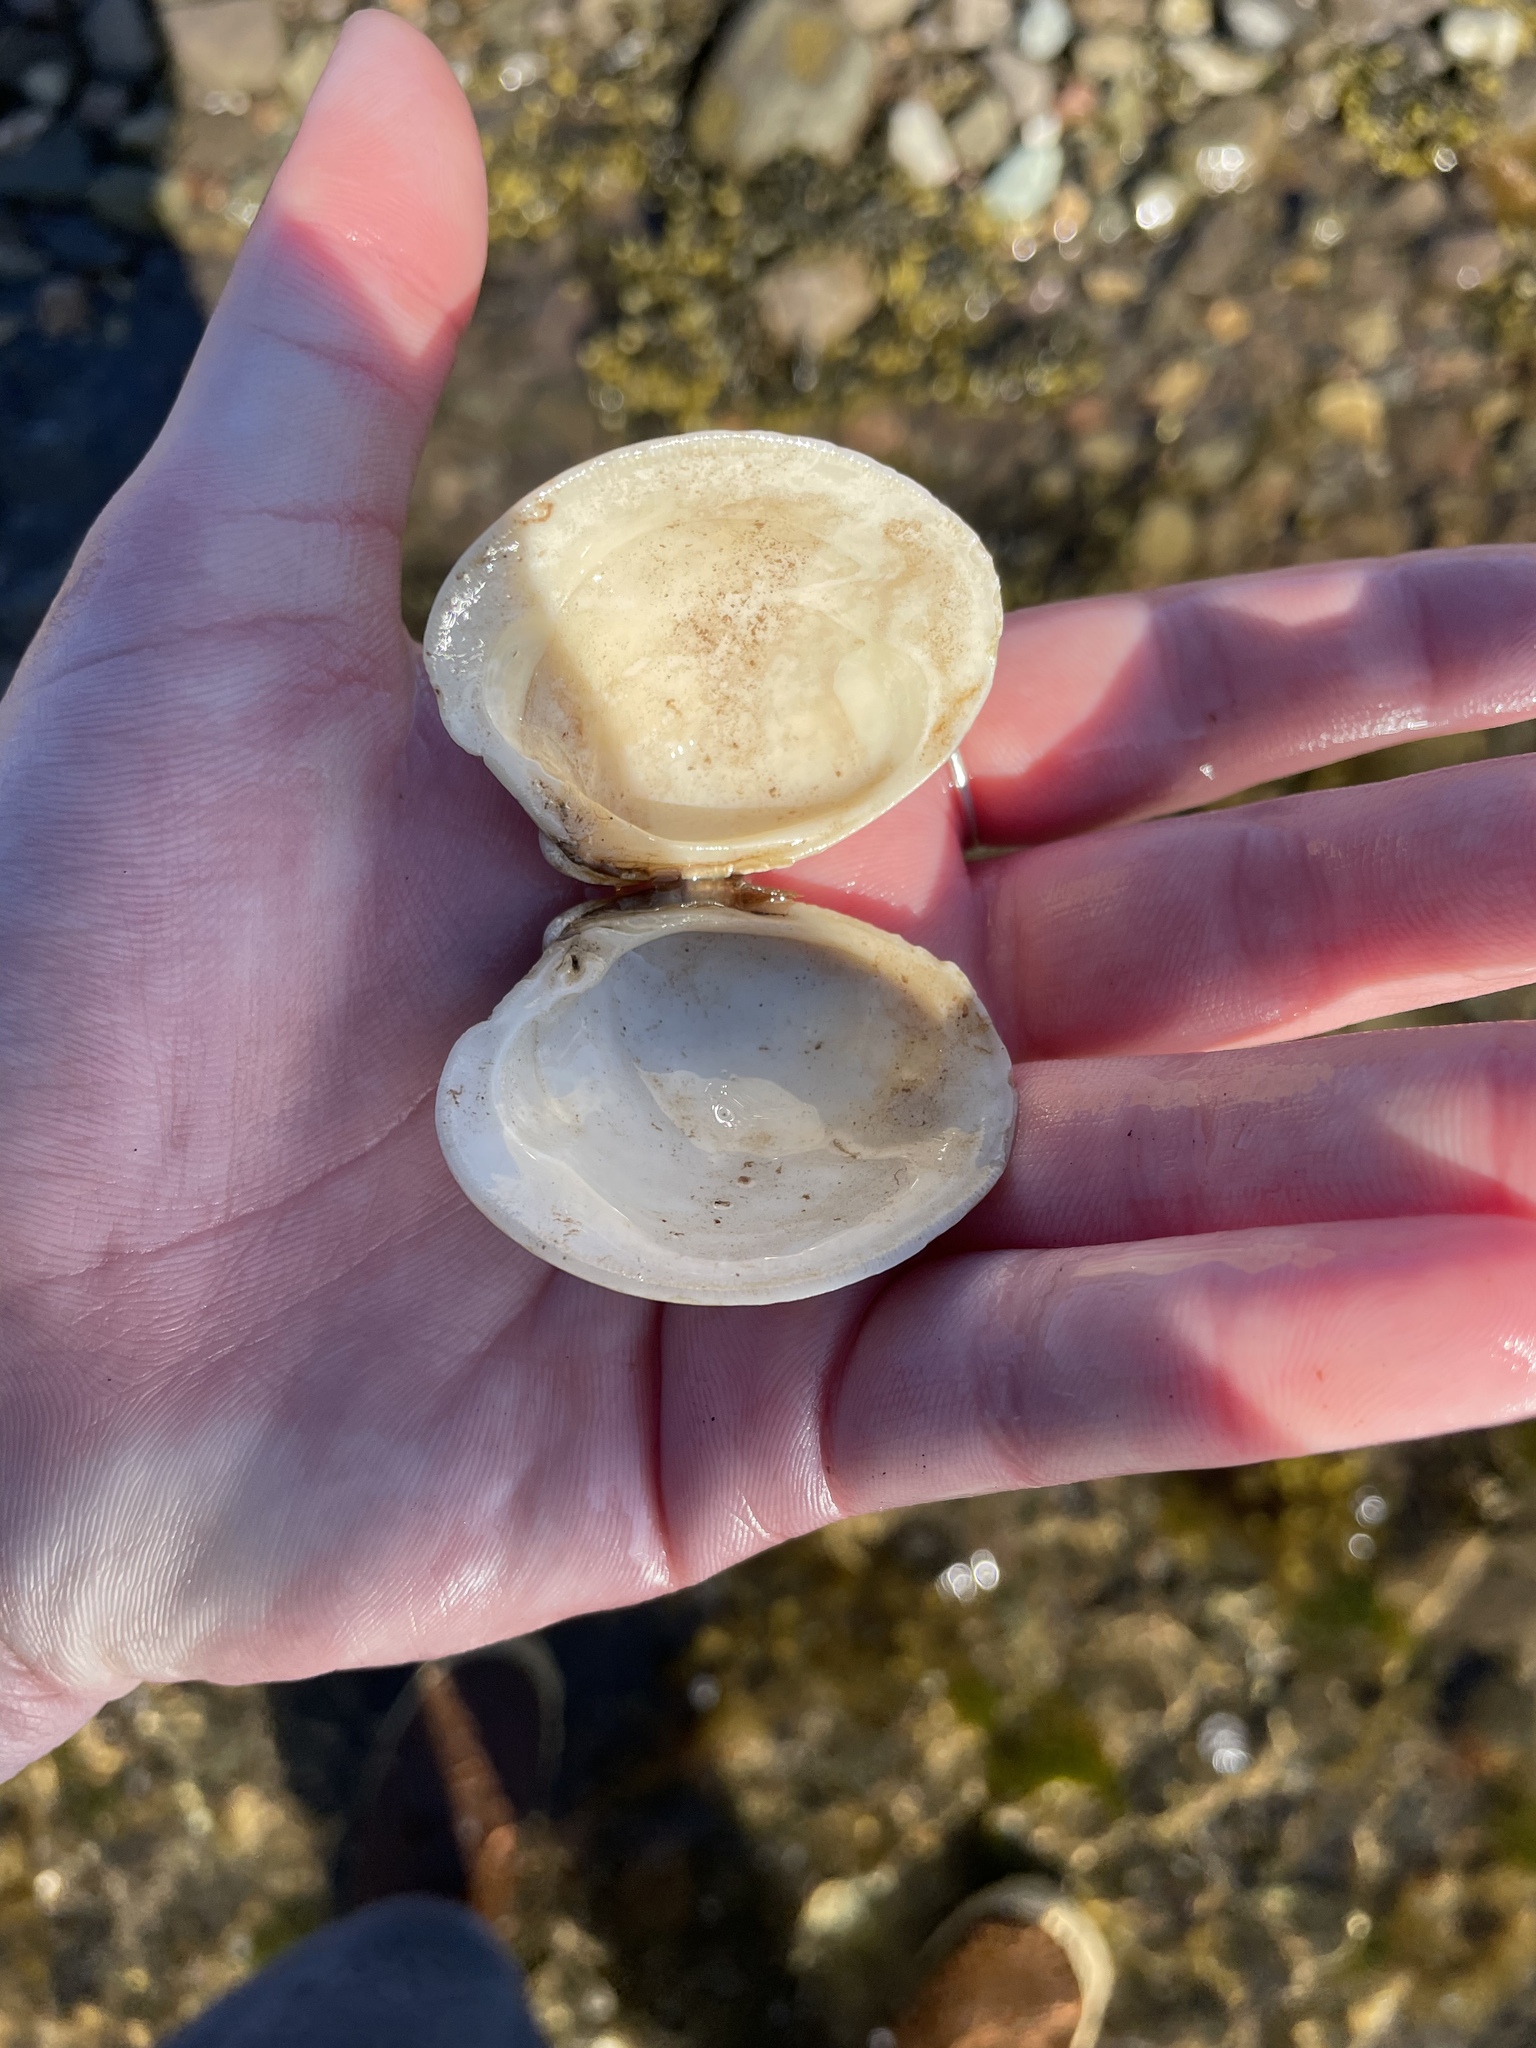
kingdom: Animalia
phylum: Mollusca
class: Bivalvia
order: Venerida
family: Veneridae
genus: Mercenaria
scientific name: Mercenaria mercenaria
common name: American hard-shelled clam
